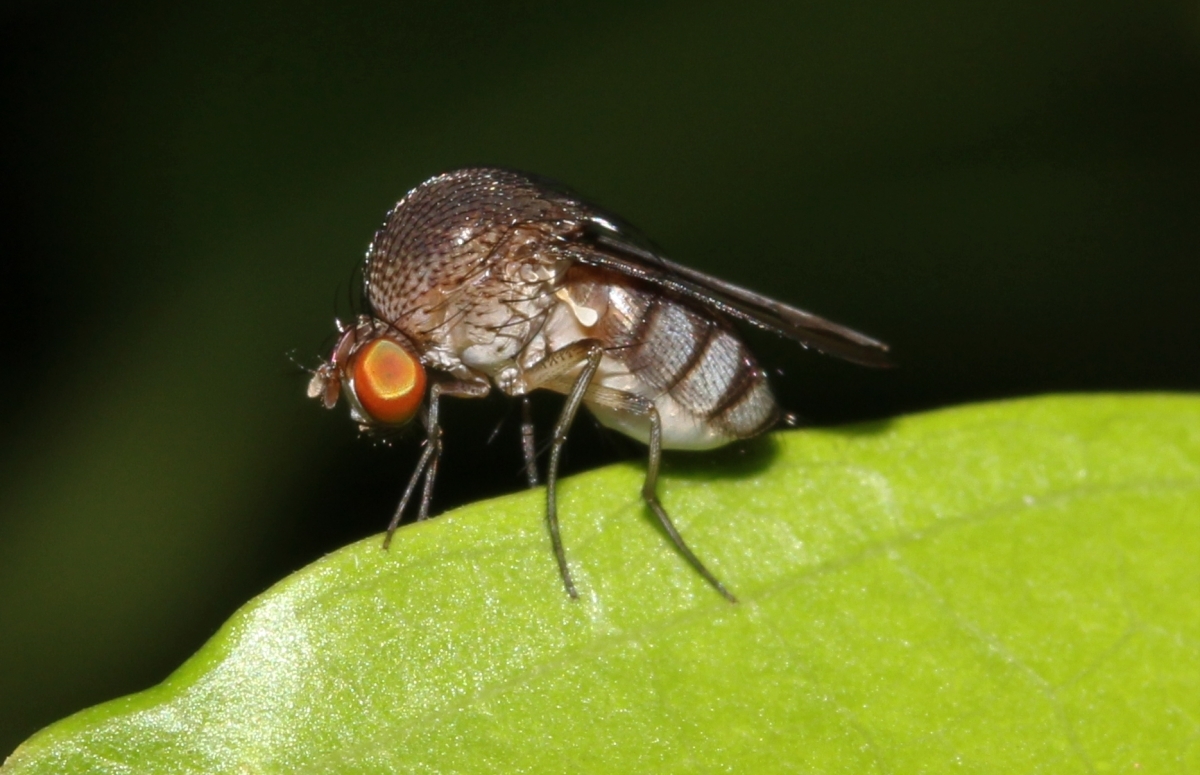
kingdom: Animalia
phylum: Arthropoda
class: Insecta
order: Diptera
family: Curtonotidae
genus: Curtonotum
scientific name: Curtonotum
